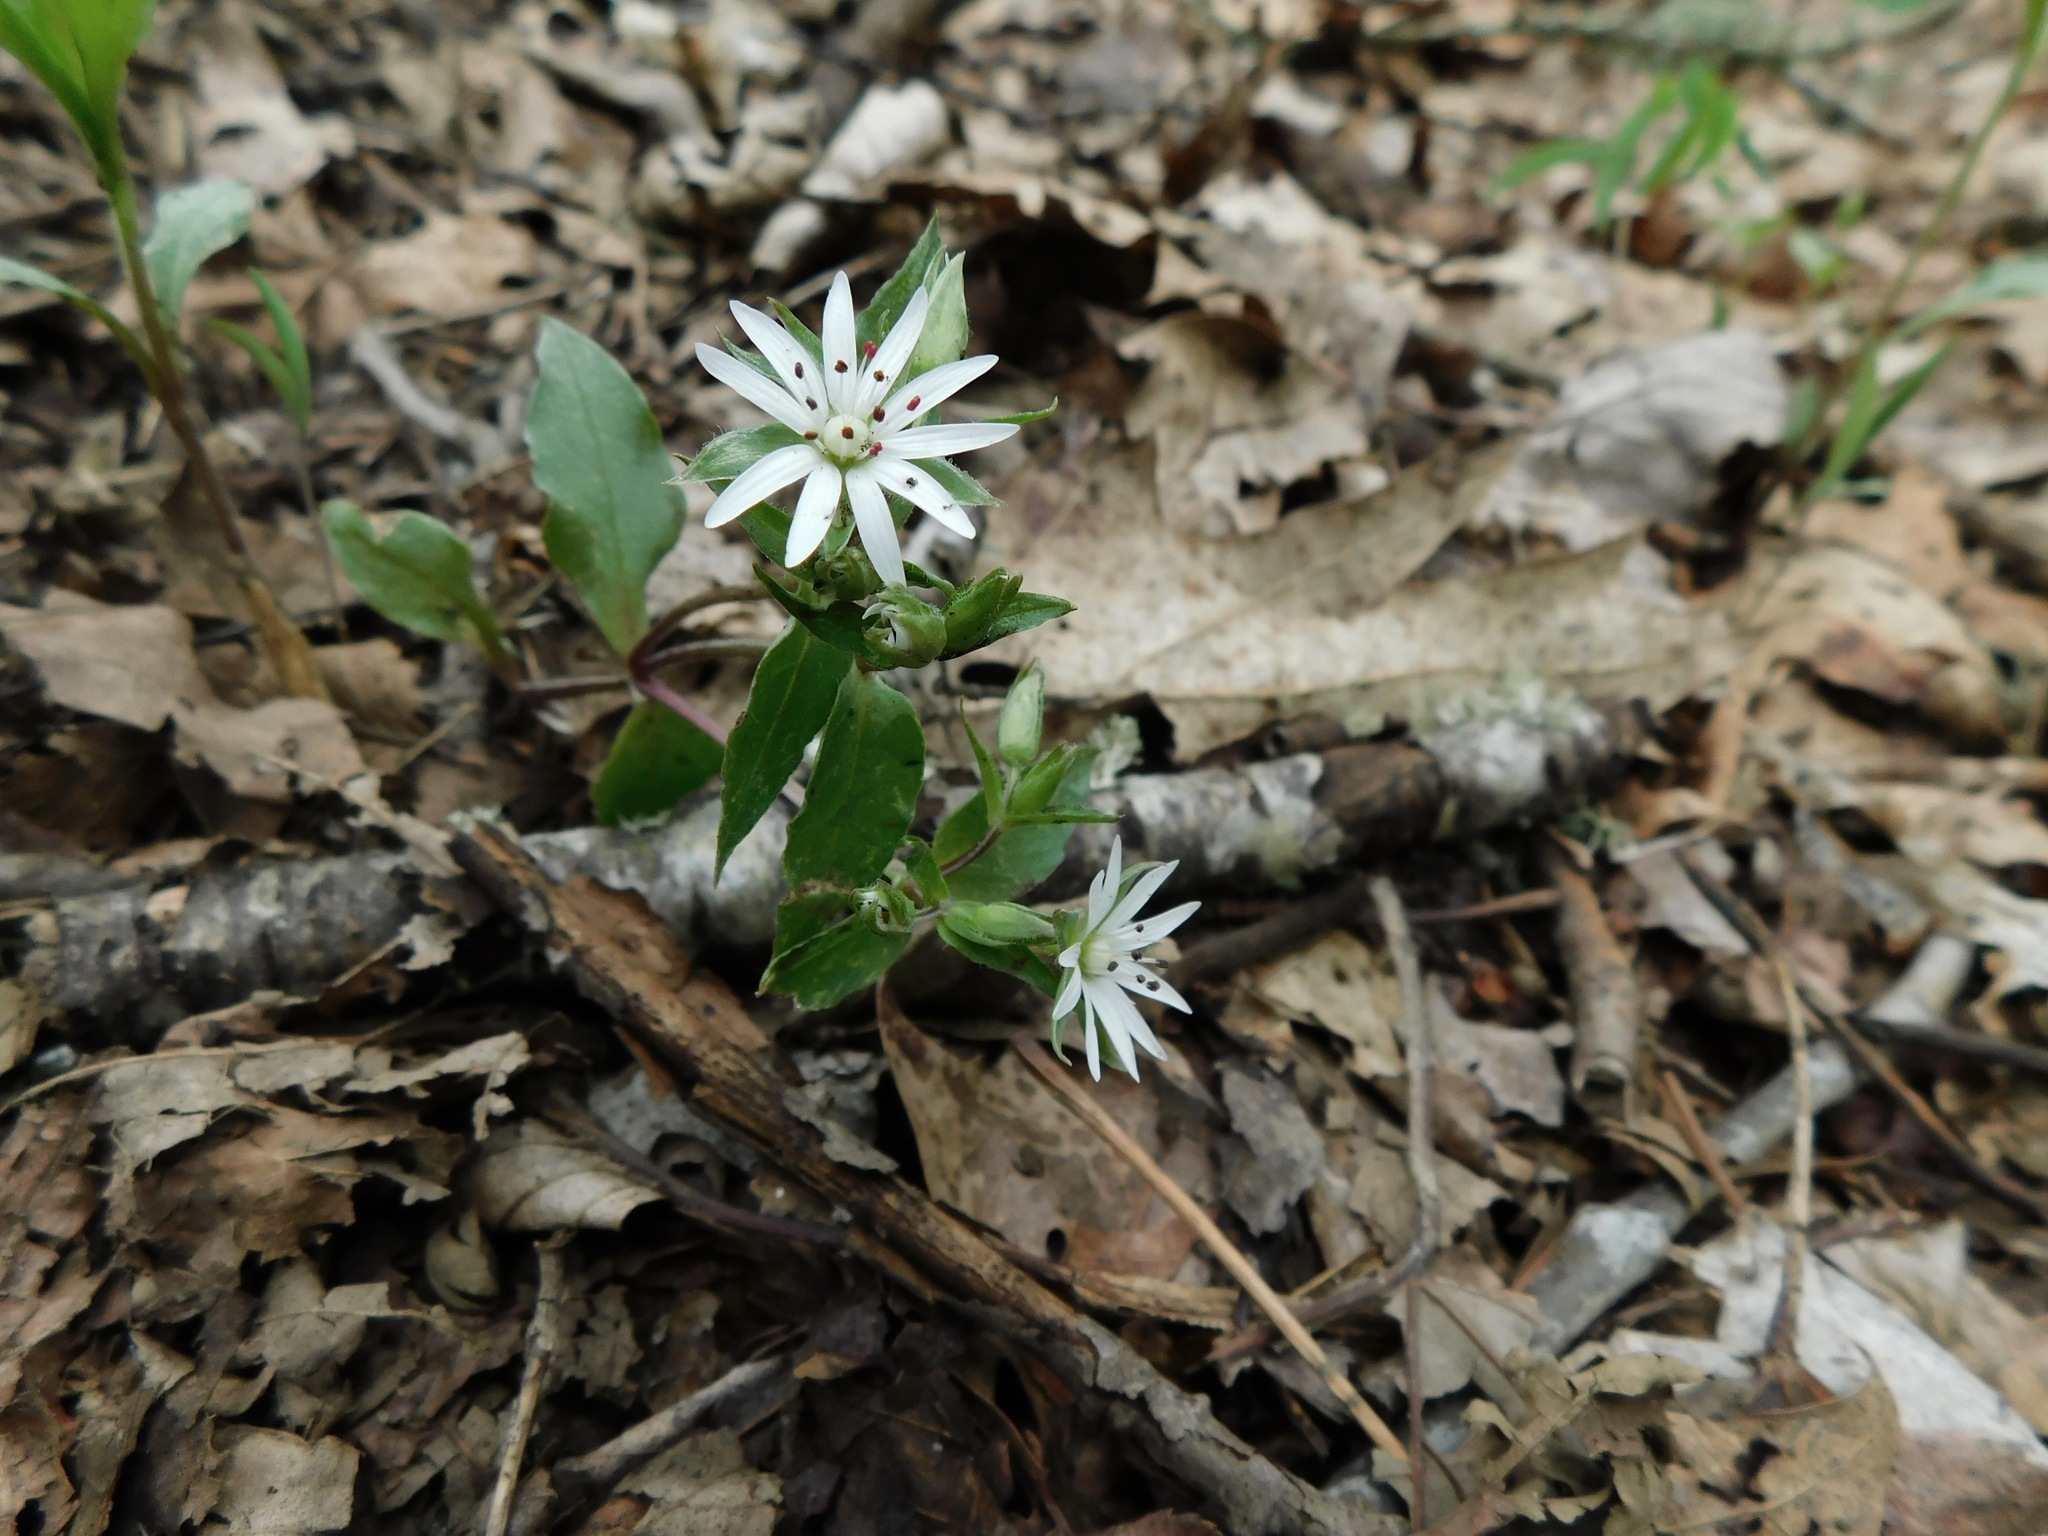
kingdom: Plantae
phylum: Tracheophyta
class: Magnoliopsida
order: Caryophyllales
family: Caryophyllaceae
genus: Stellaria
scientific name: Stellaria corei
